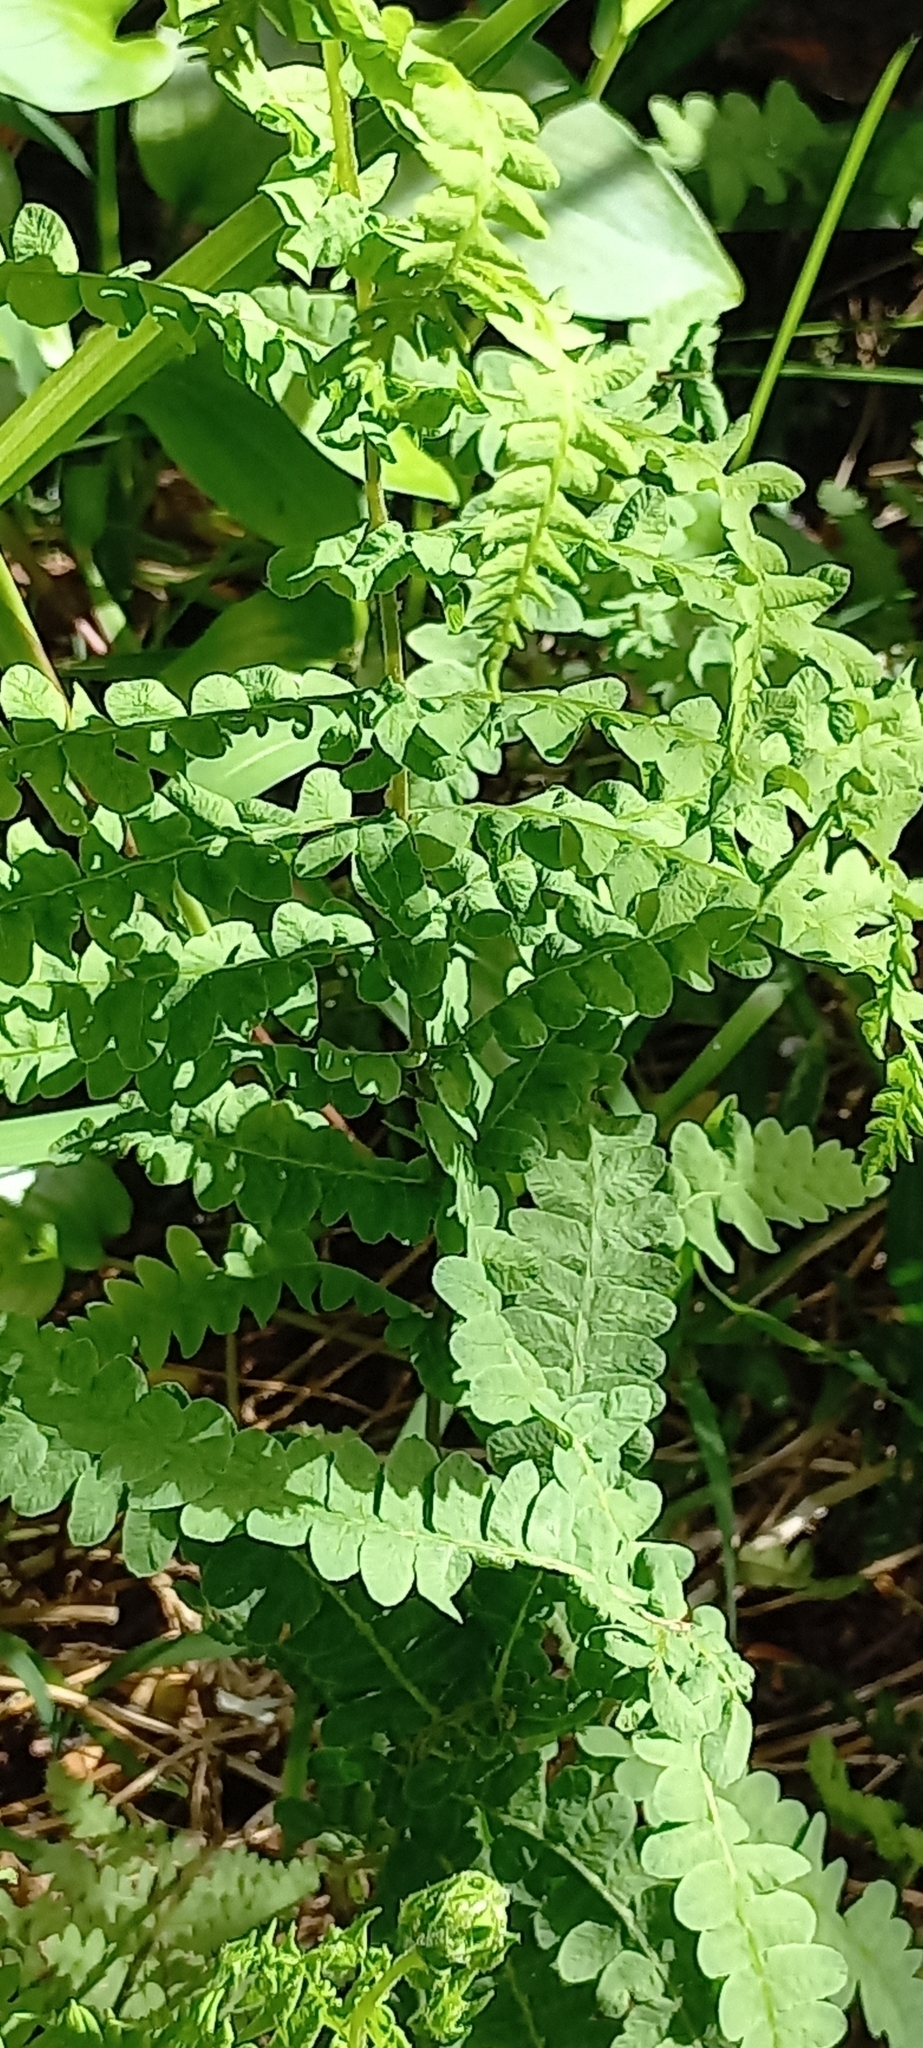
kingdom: Plantae
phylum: Tracheophyta
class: Polypodiopsida
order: Polypodiales
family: Thelypteridaceae
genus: Thelypteris
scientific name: Thelypteris confluens
